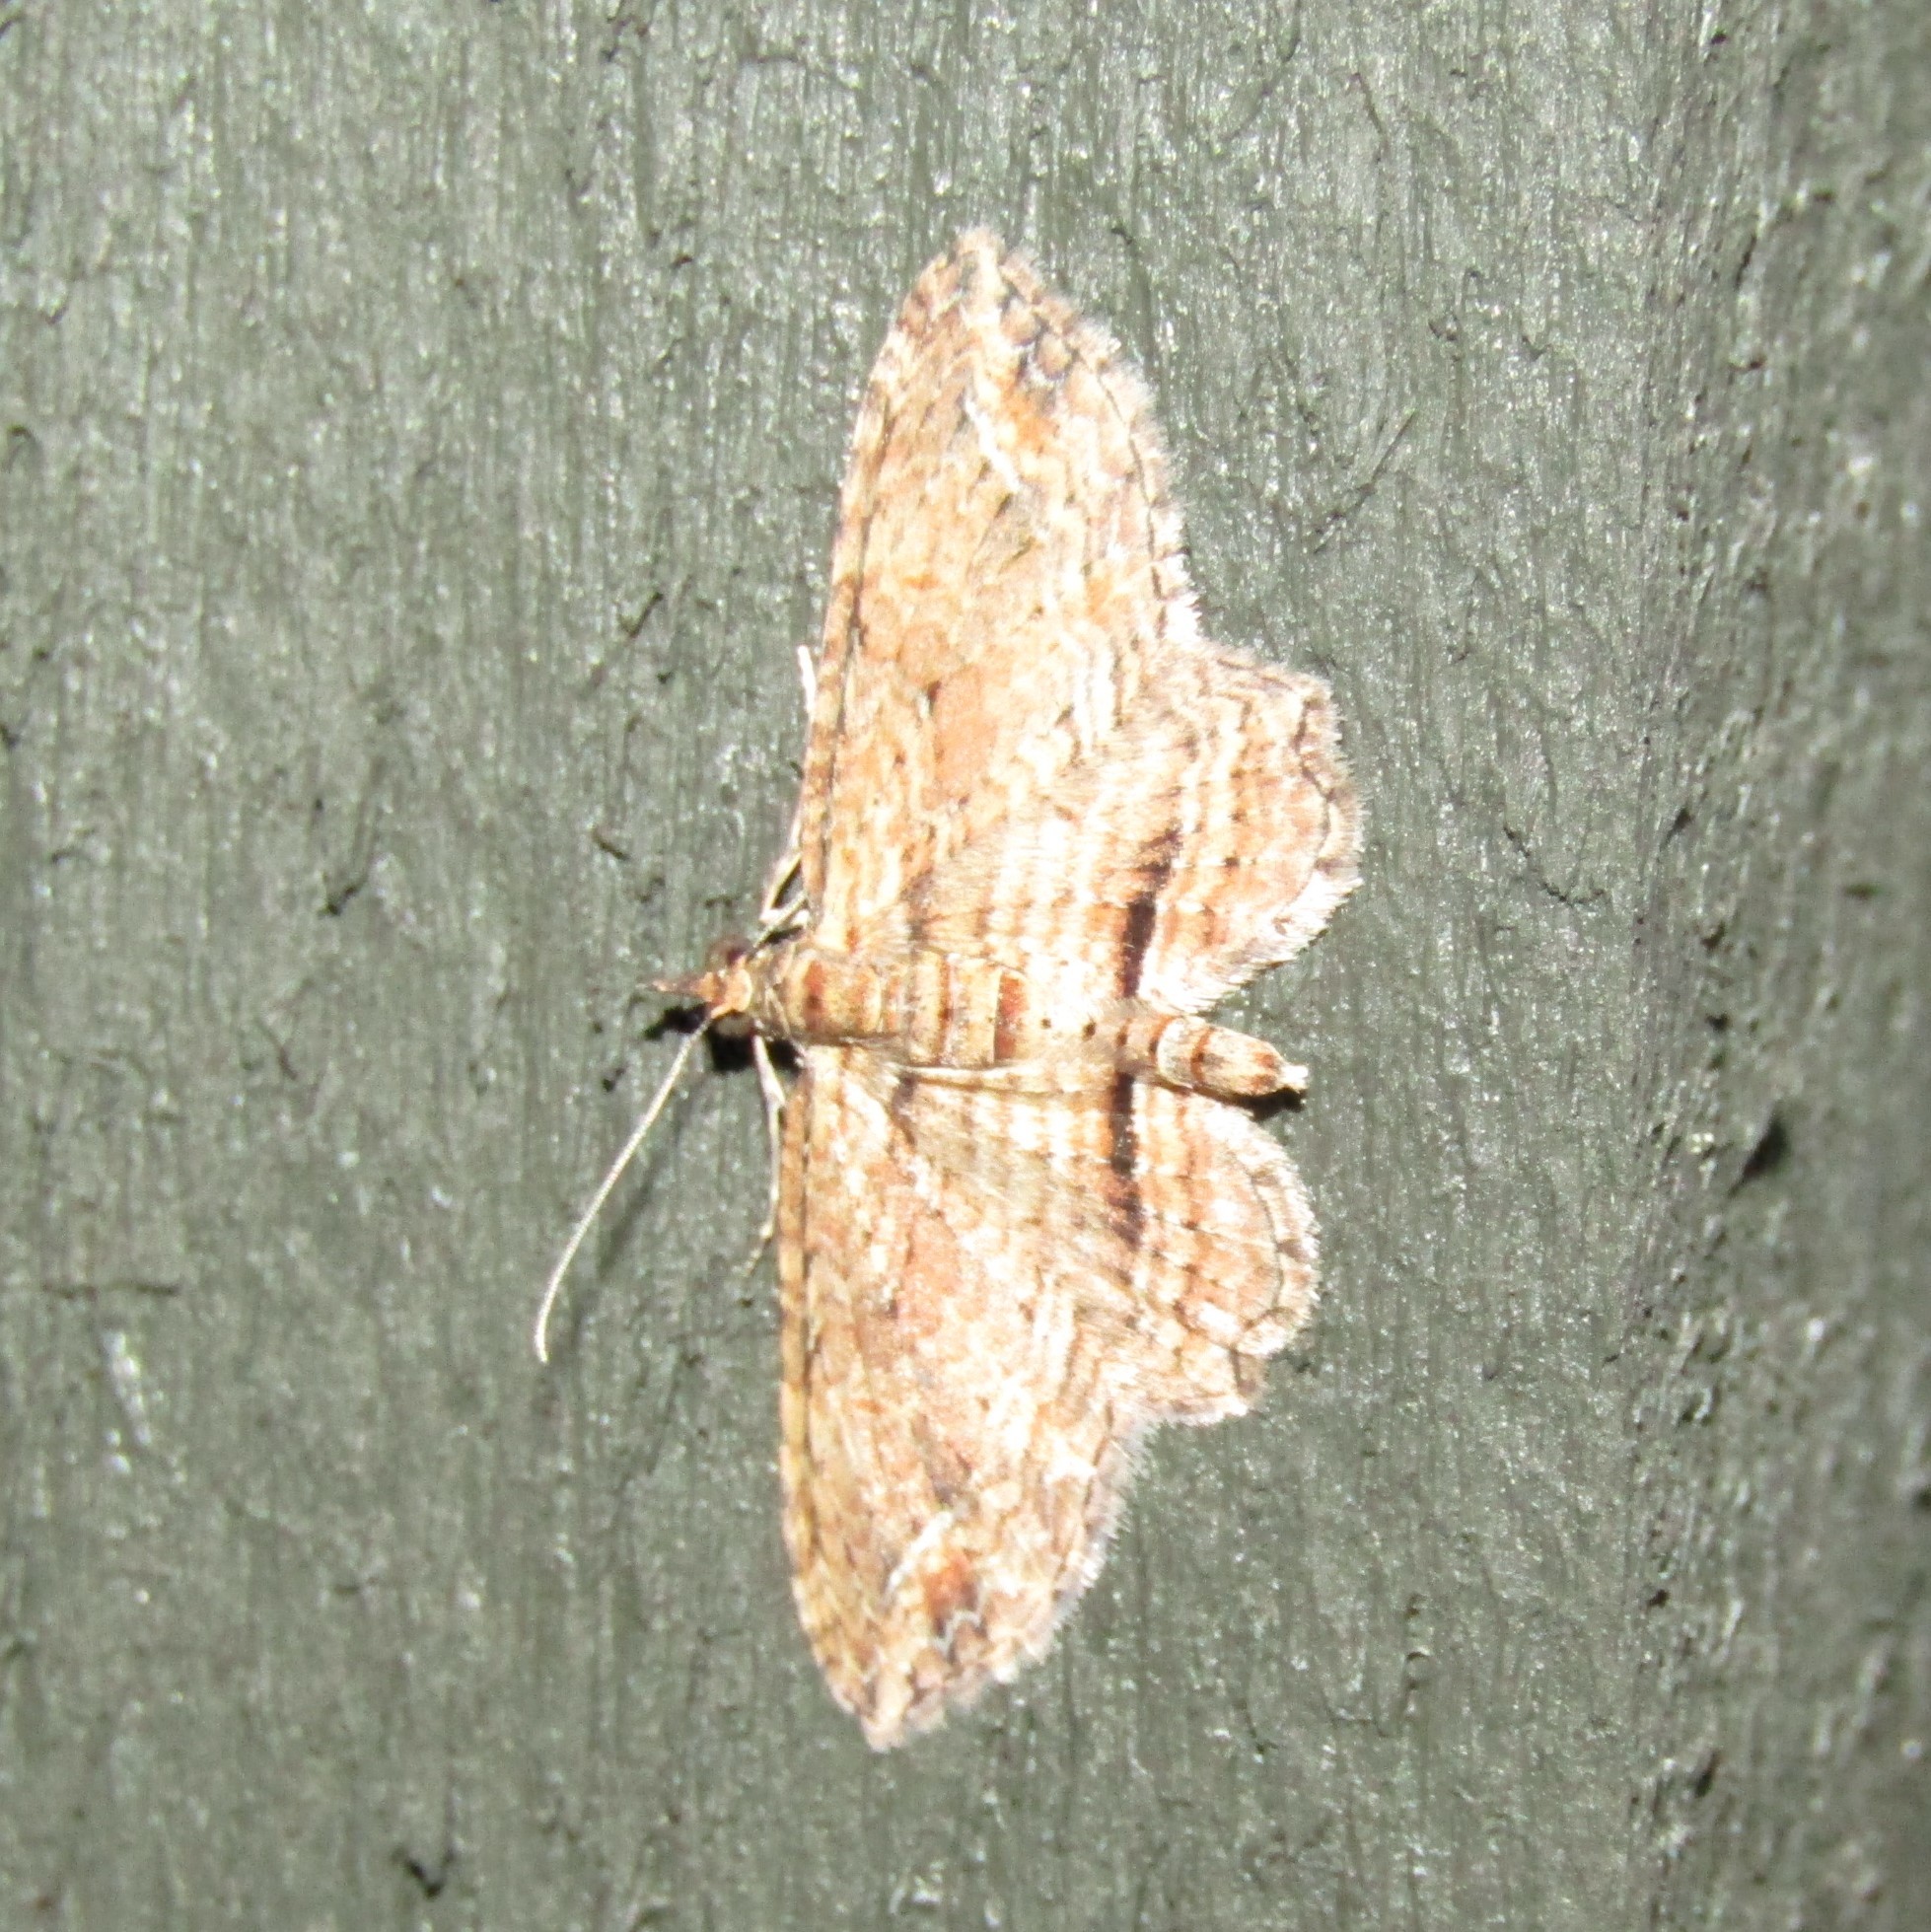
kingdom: Animalia
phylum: Arthropoda
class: Insecta
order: Lepidoptera
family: Geometridae
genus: Chloroclystis
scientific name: Chloroclystis filata
